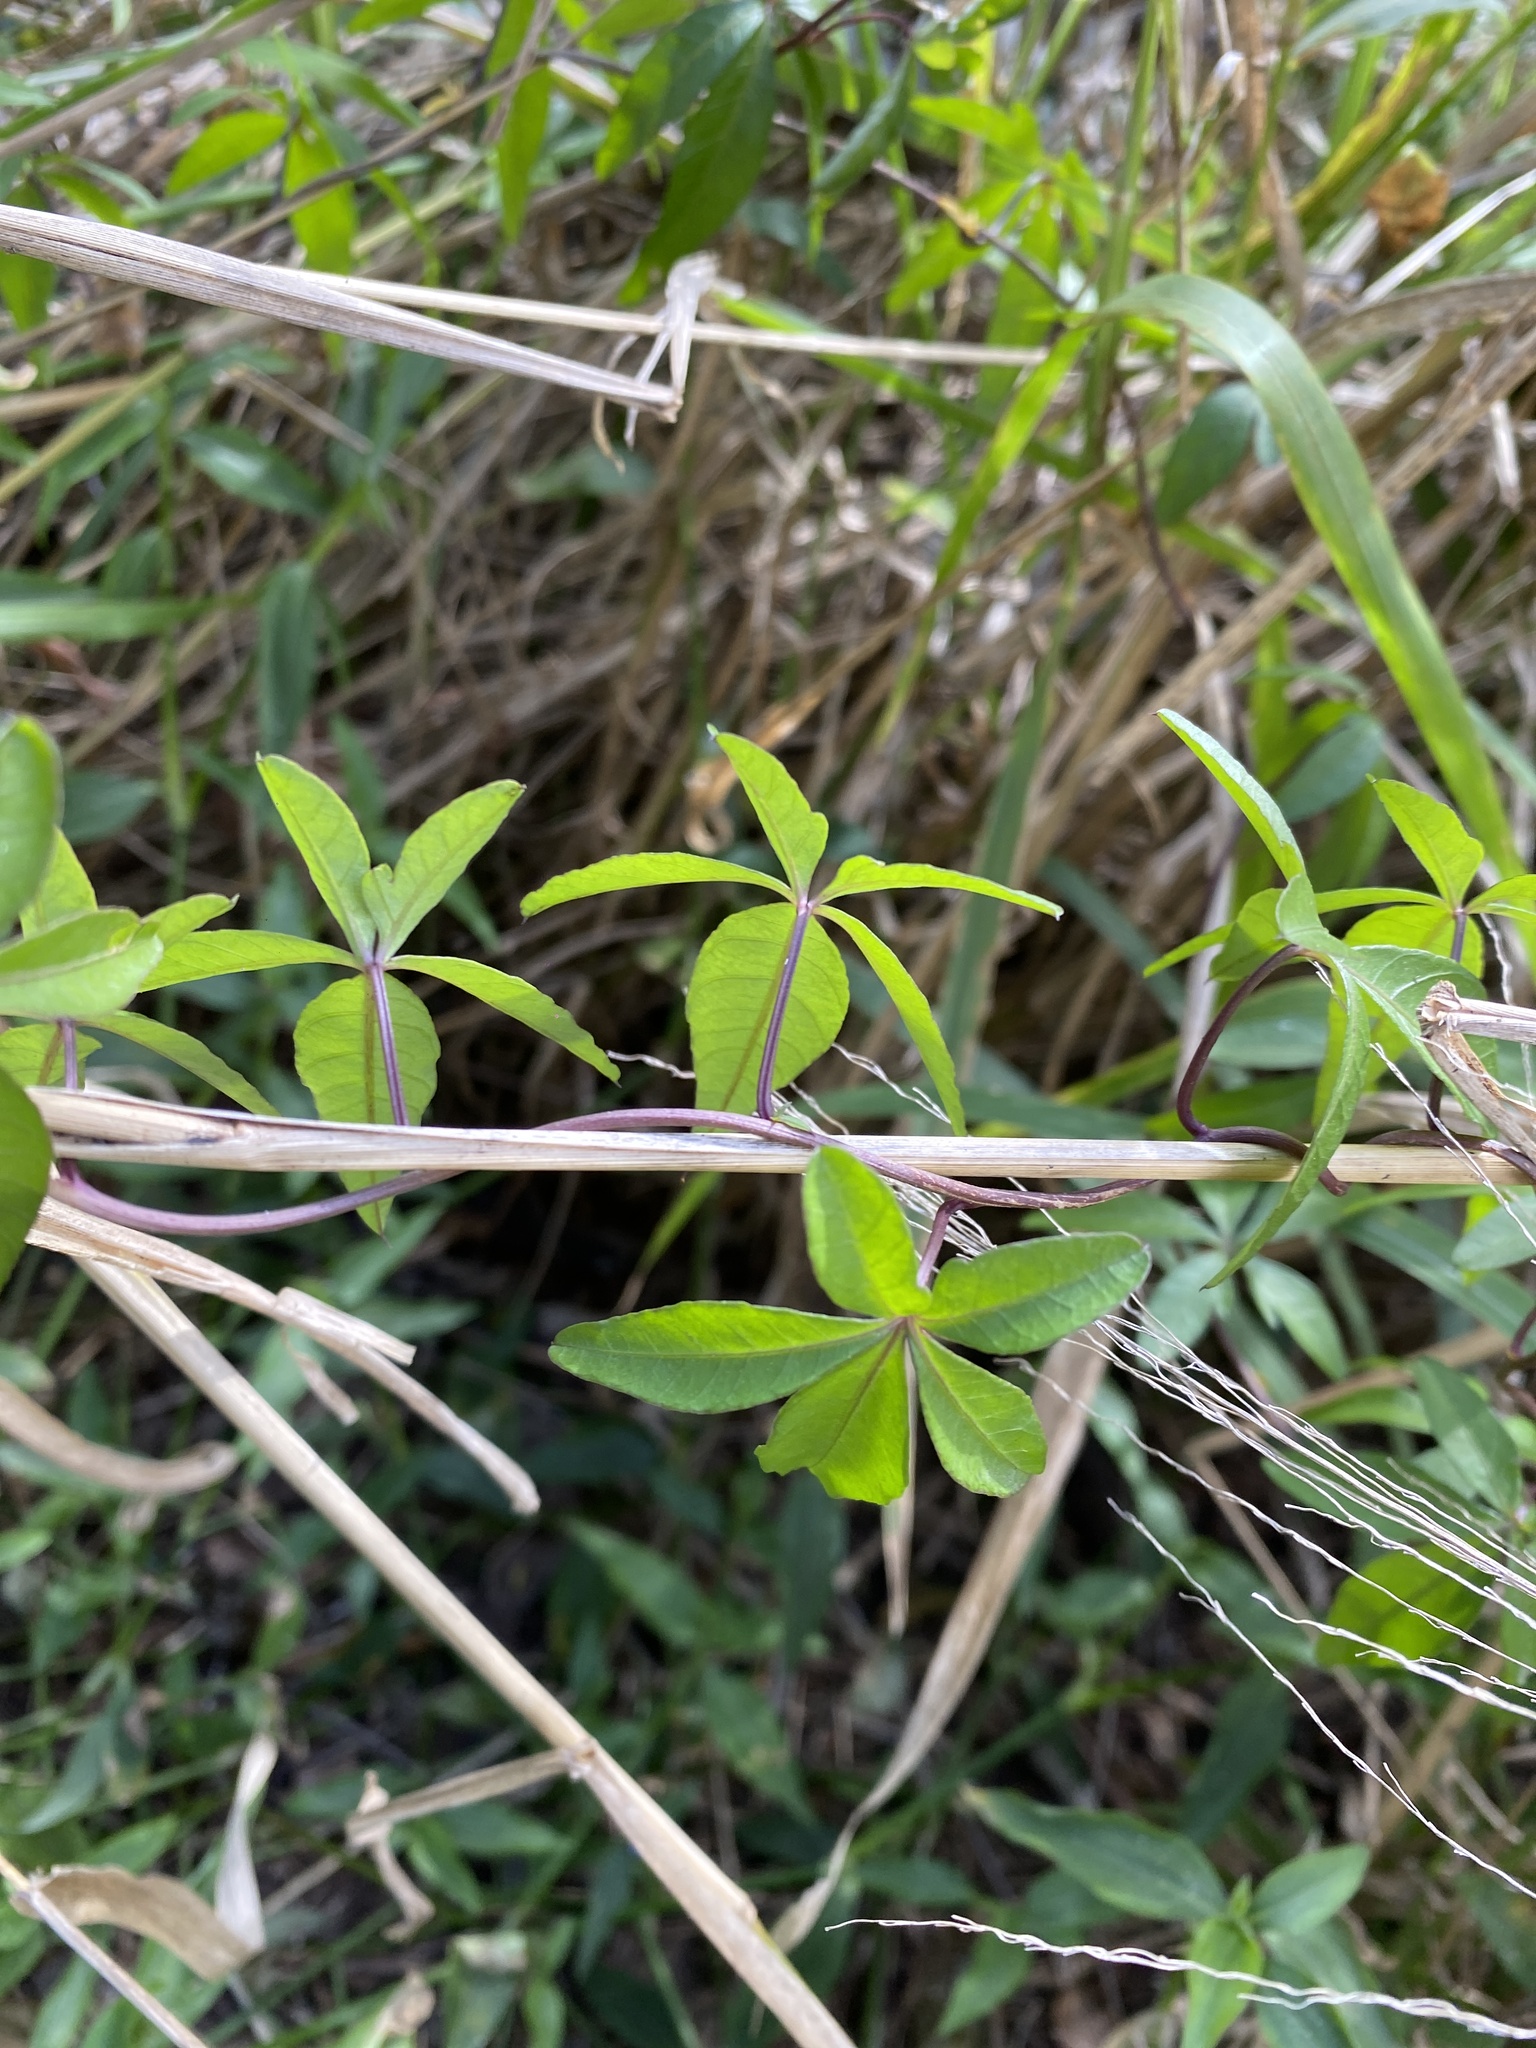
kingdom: Plantae
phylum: Tracheophyta
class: Magnoliopsida
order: Solanales
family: Convolvulaceae
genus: Ipomoea
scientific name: Ipomoea cairica
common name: Mile a minute vine
